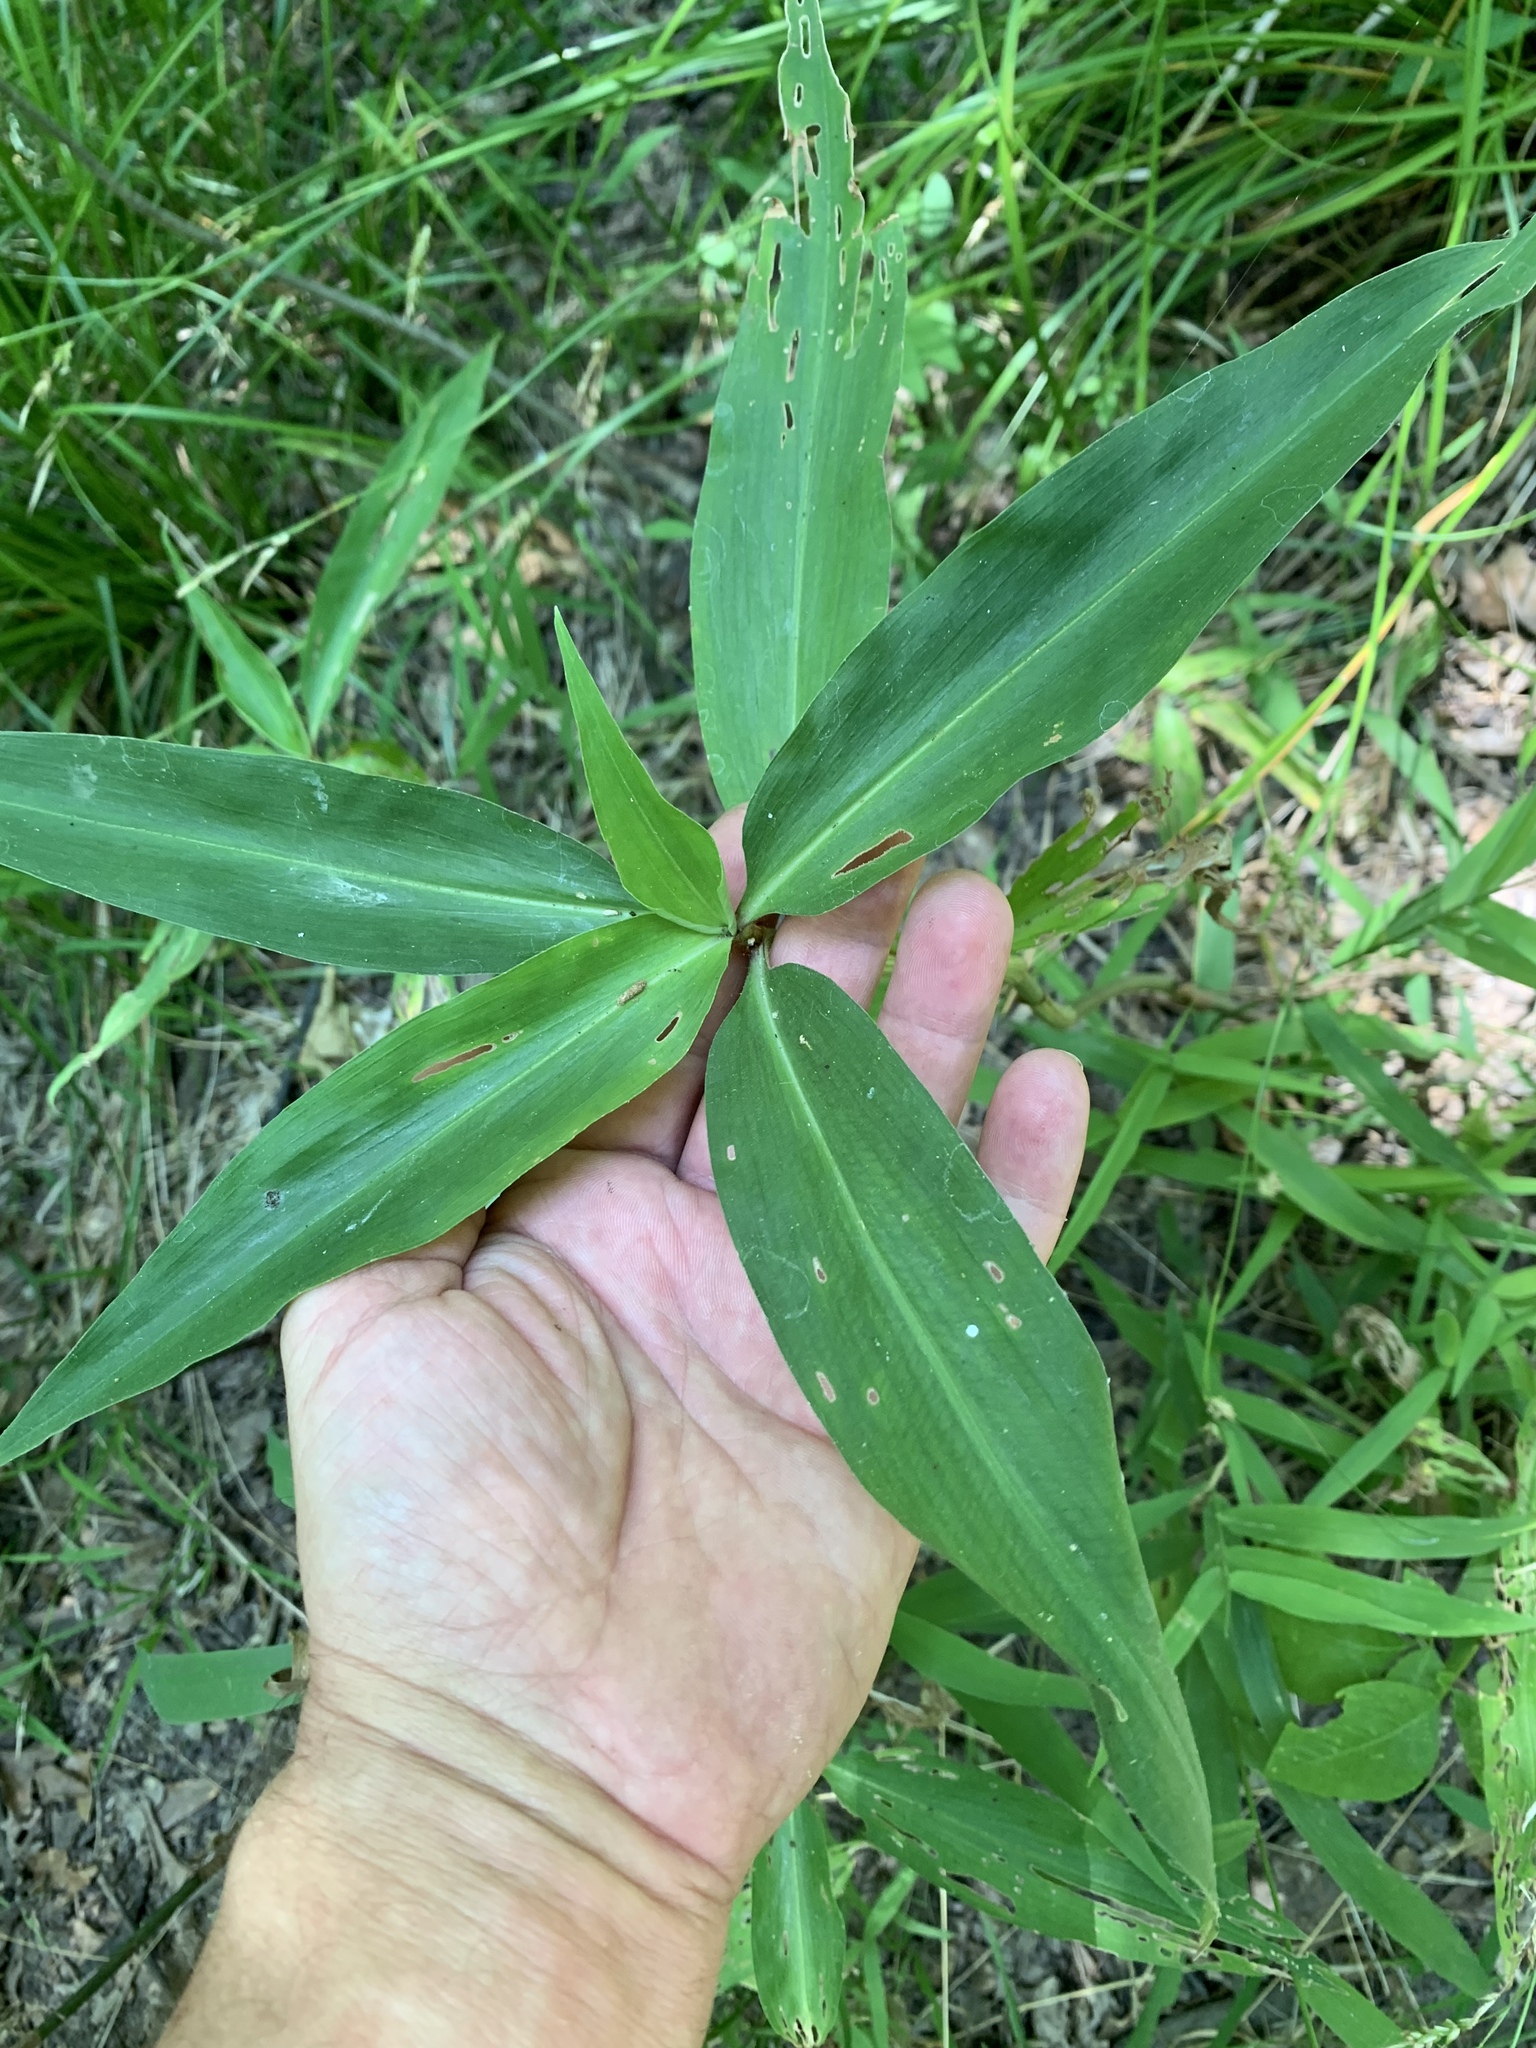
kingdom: Plantae
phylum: Tracheophyta
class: Liliopsida
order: Commelinales
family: Commelinaceae
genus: Commelina
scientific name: Commelina virginica
